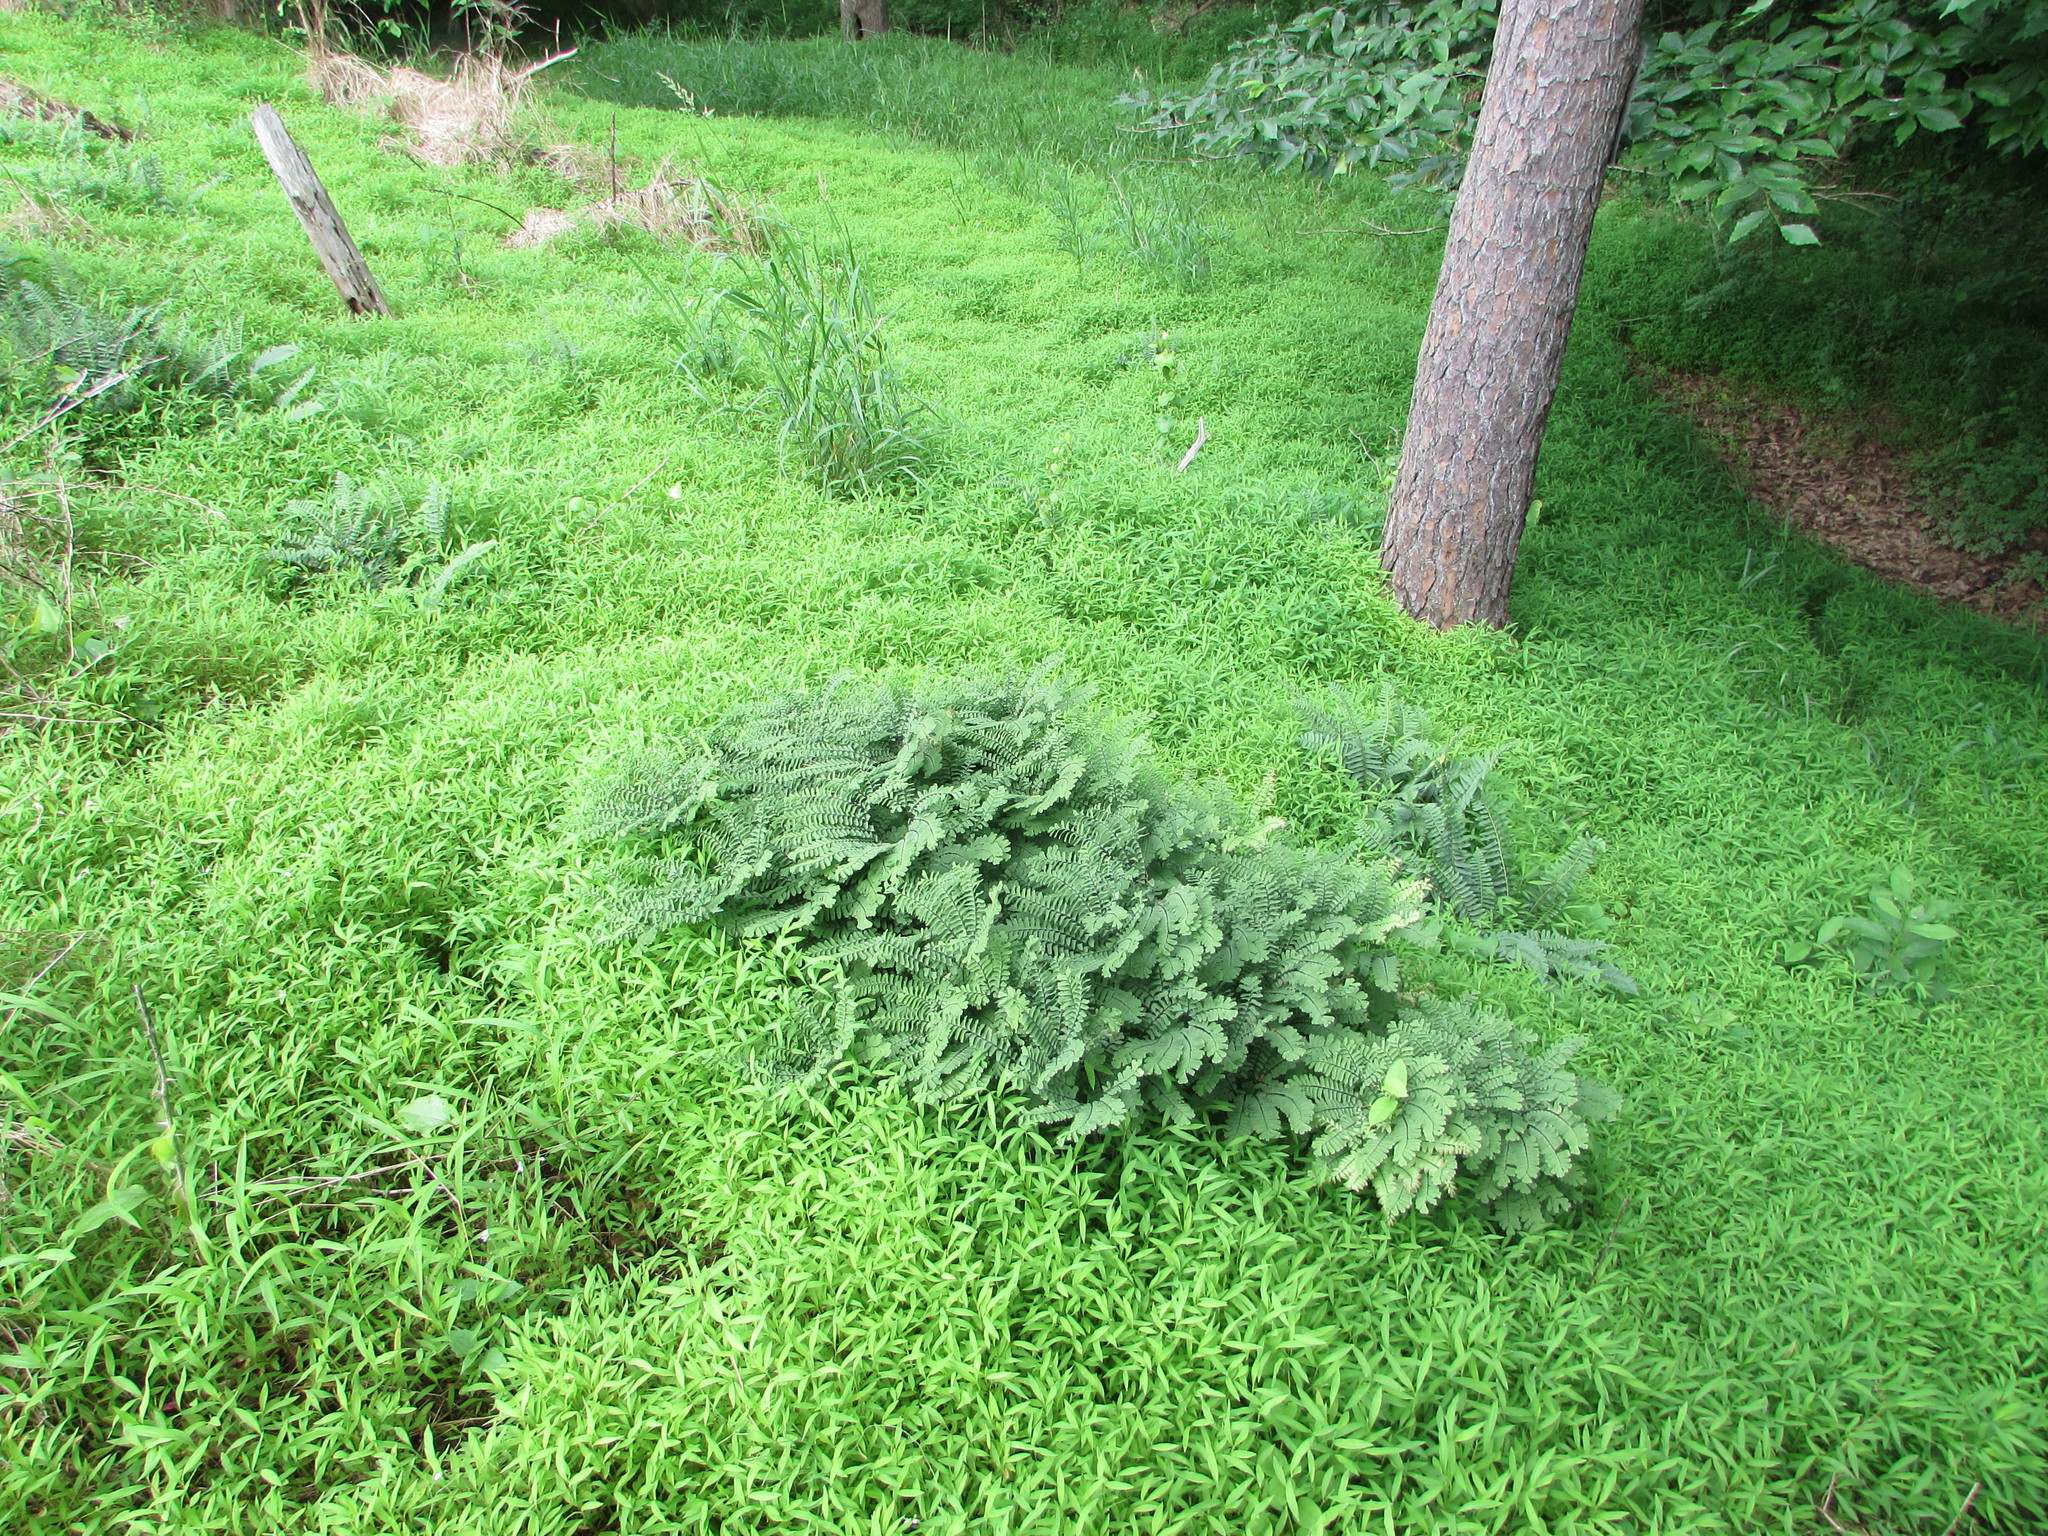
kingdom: Plantae
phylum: Tracheophyta
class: Polypodiopsida
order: Polypodiales
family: Pteridaceae
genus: Adiantum
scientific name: Adiantum pedatum
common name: Five-finger fern
